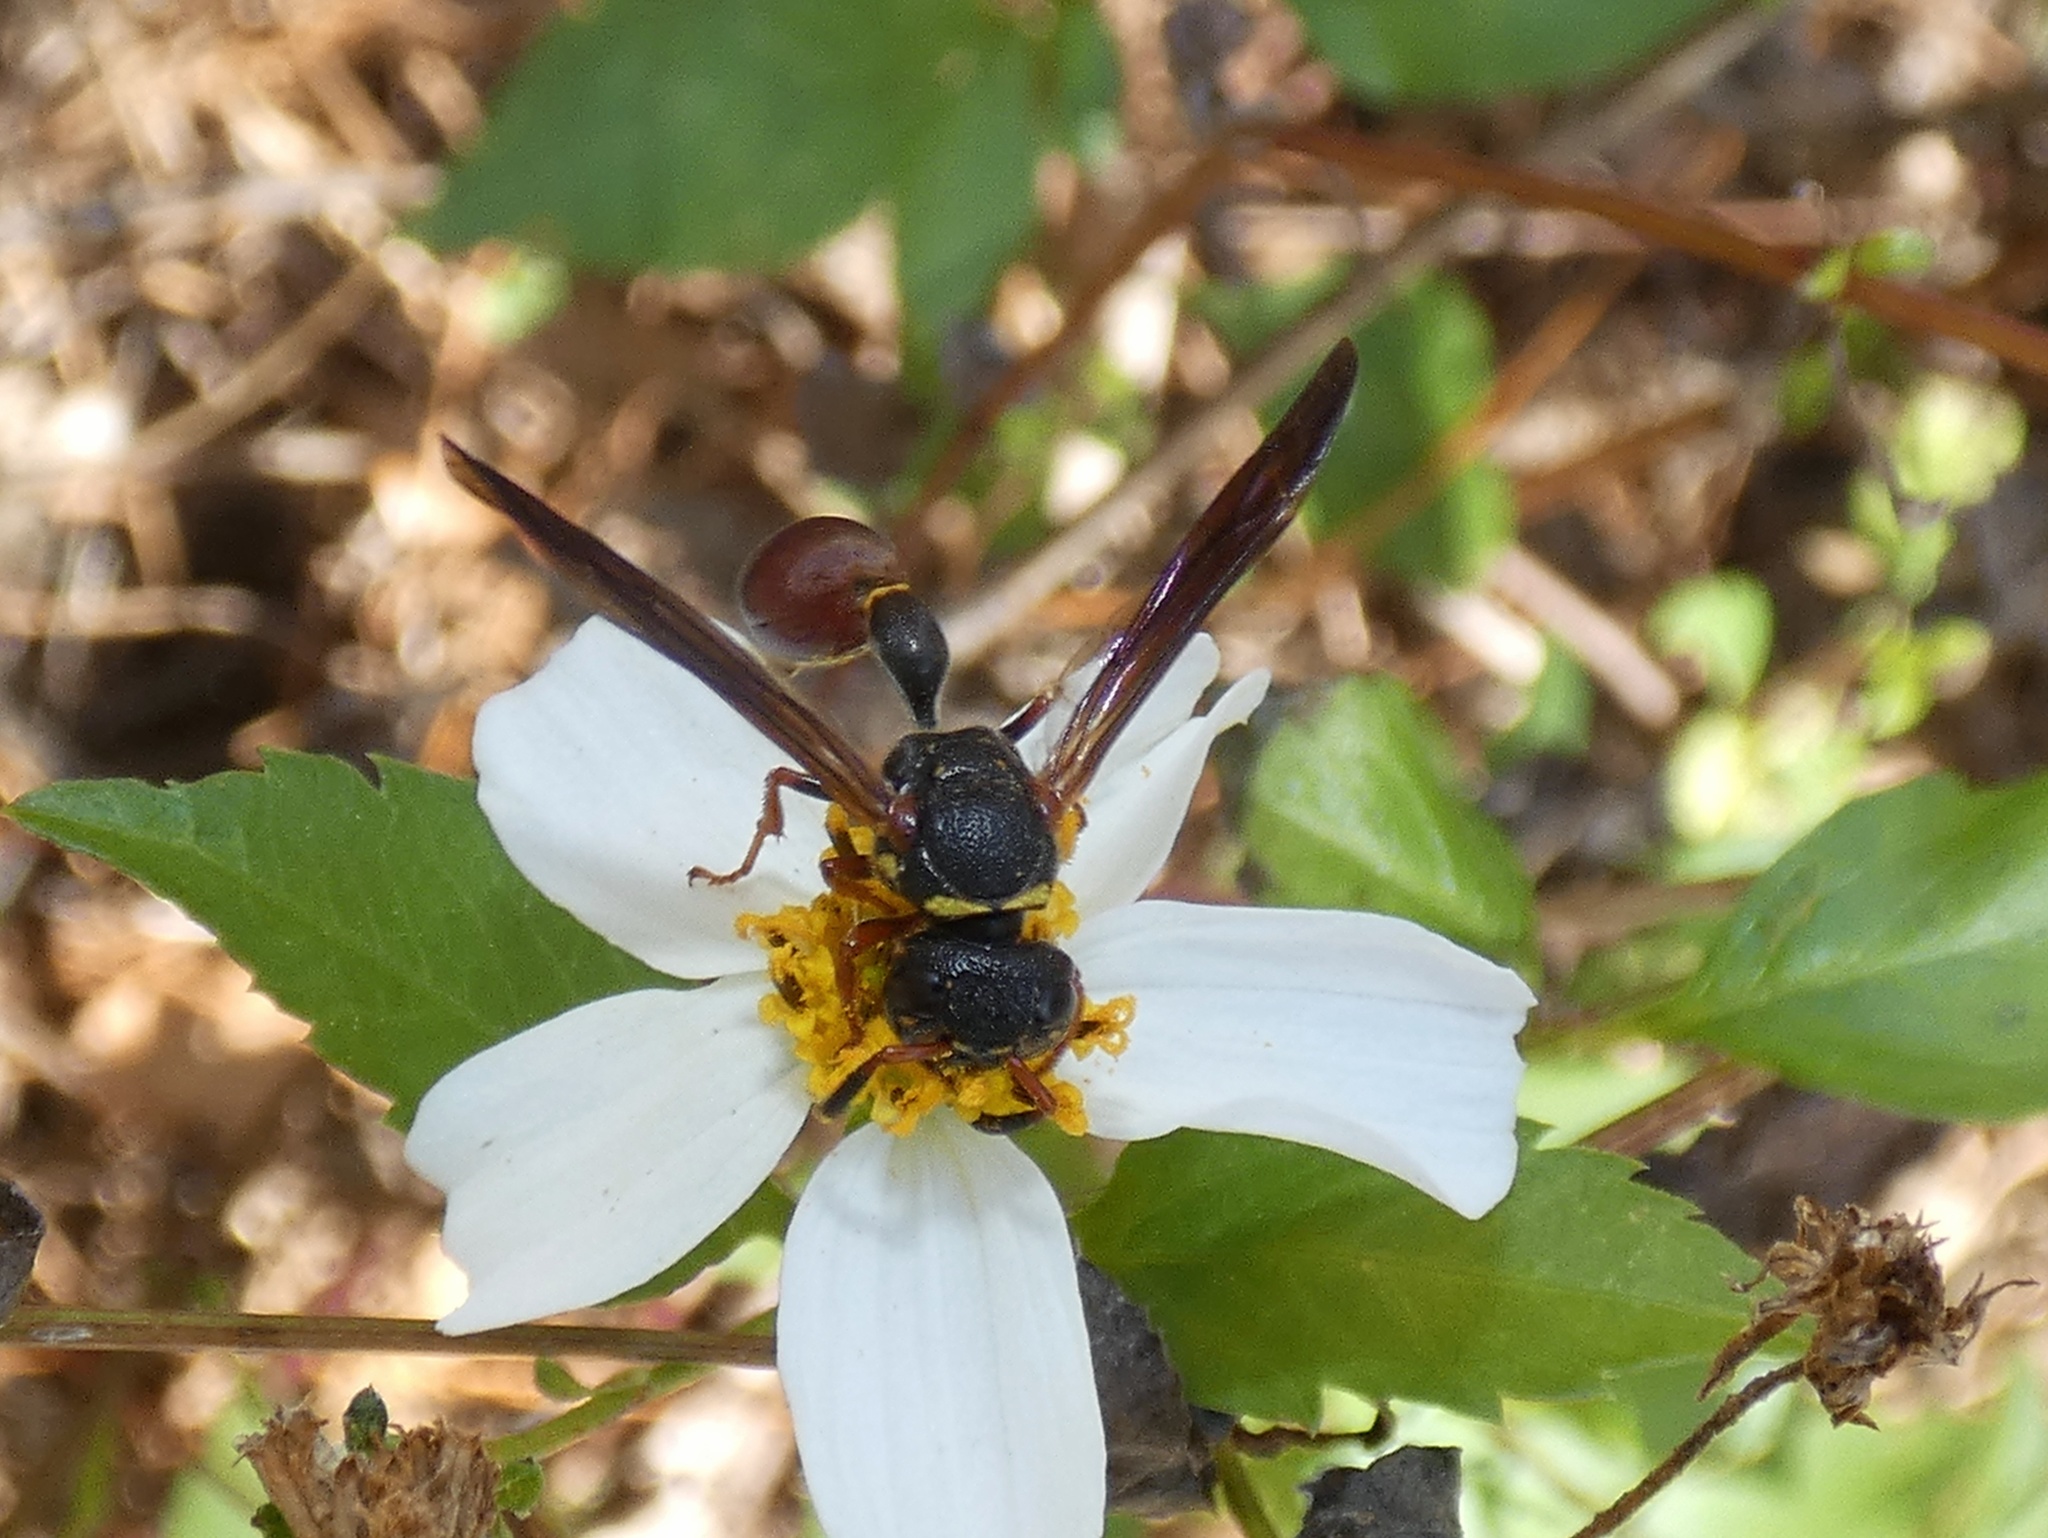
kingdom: Animalia
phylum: Arthropoda
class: Insecta
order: Hymenoptera
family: Eumenidae
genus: Zethus
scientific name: Zethus slossonae
